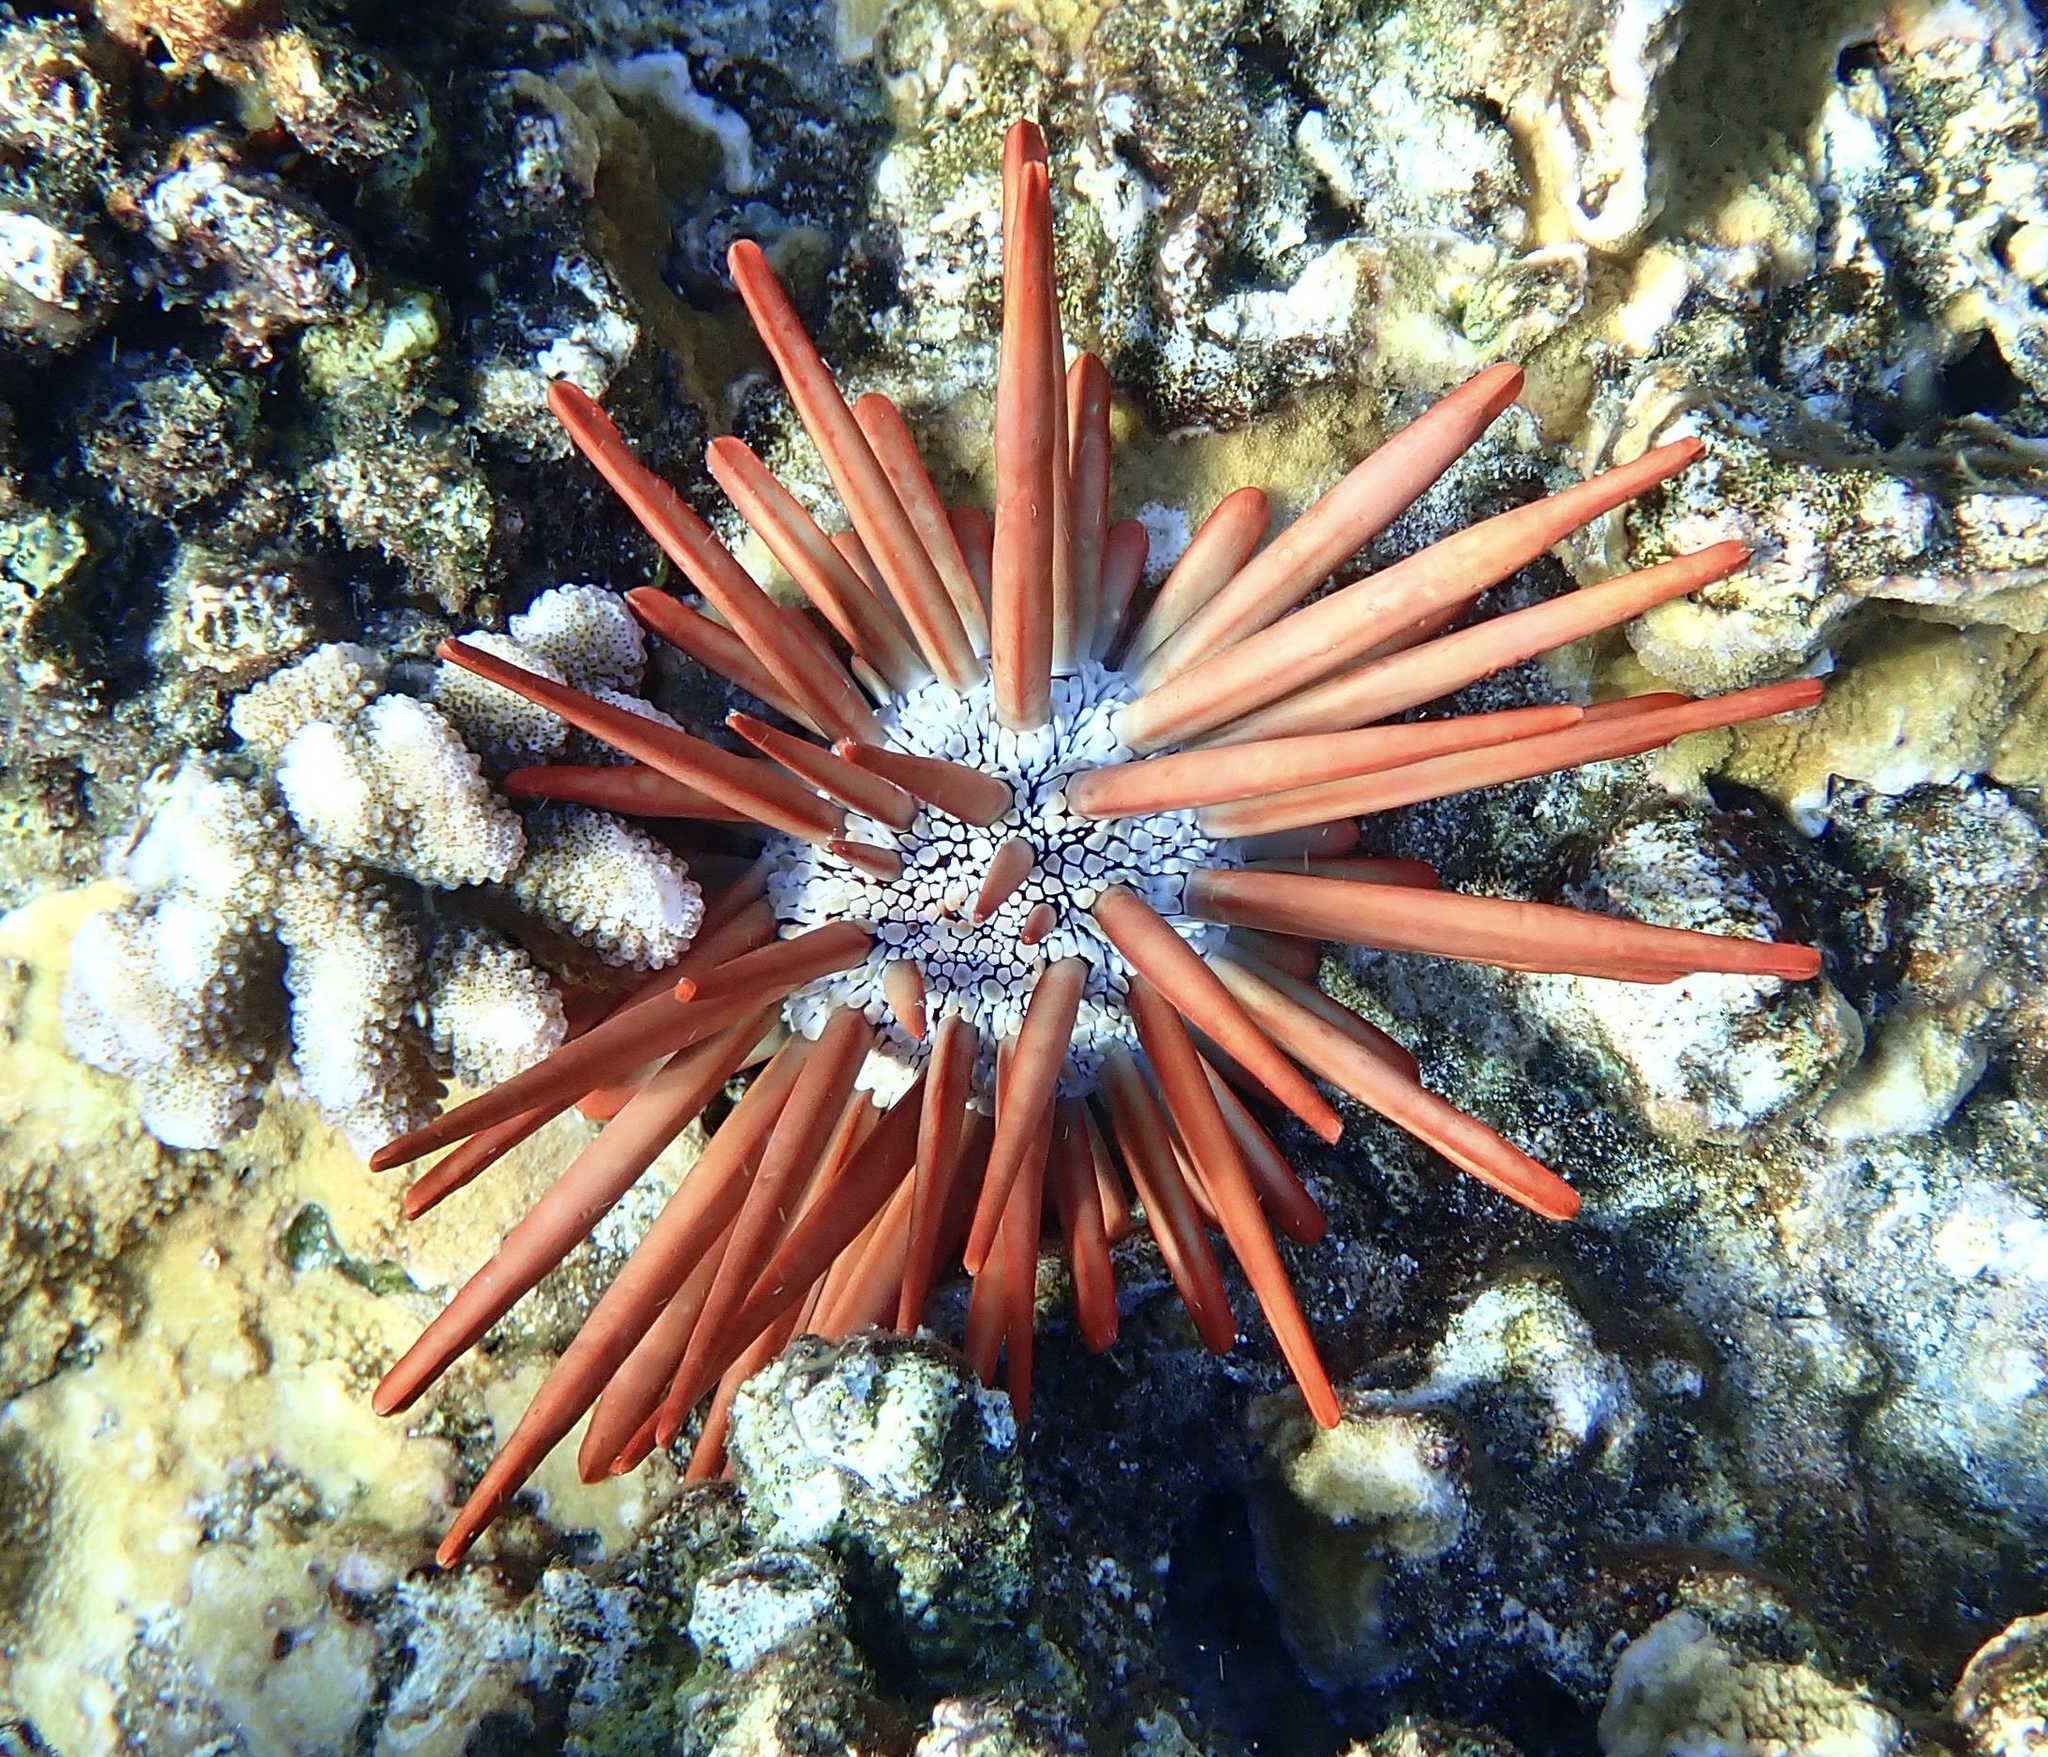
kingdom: Animalia
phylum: Echinodermata
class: Echinoidea
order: Camarodonta
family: Echinometridae
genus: Heterocentrotus
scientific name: Heterocentrotus mamillatus
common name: Slate pencil urchin
